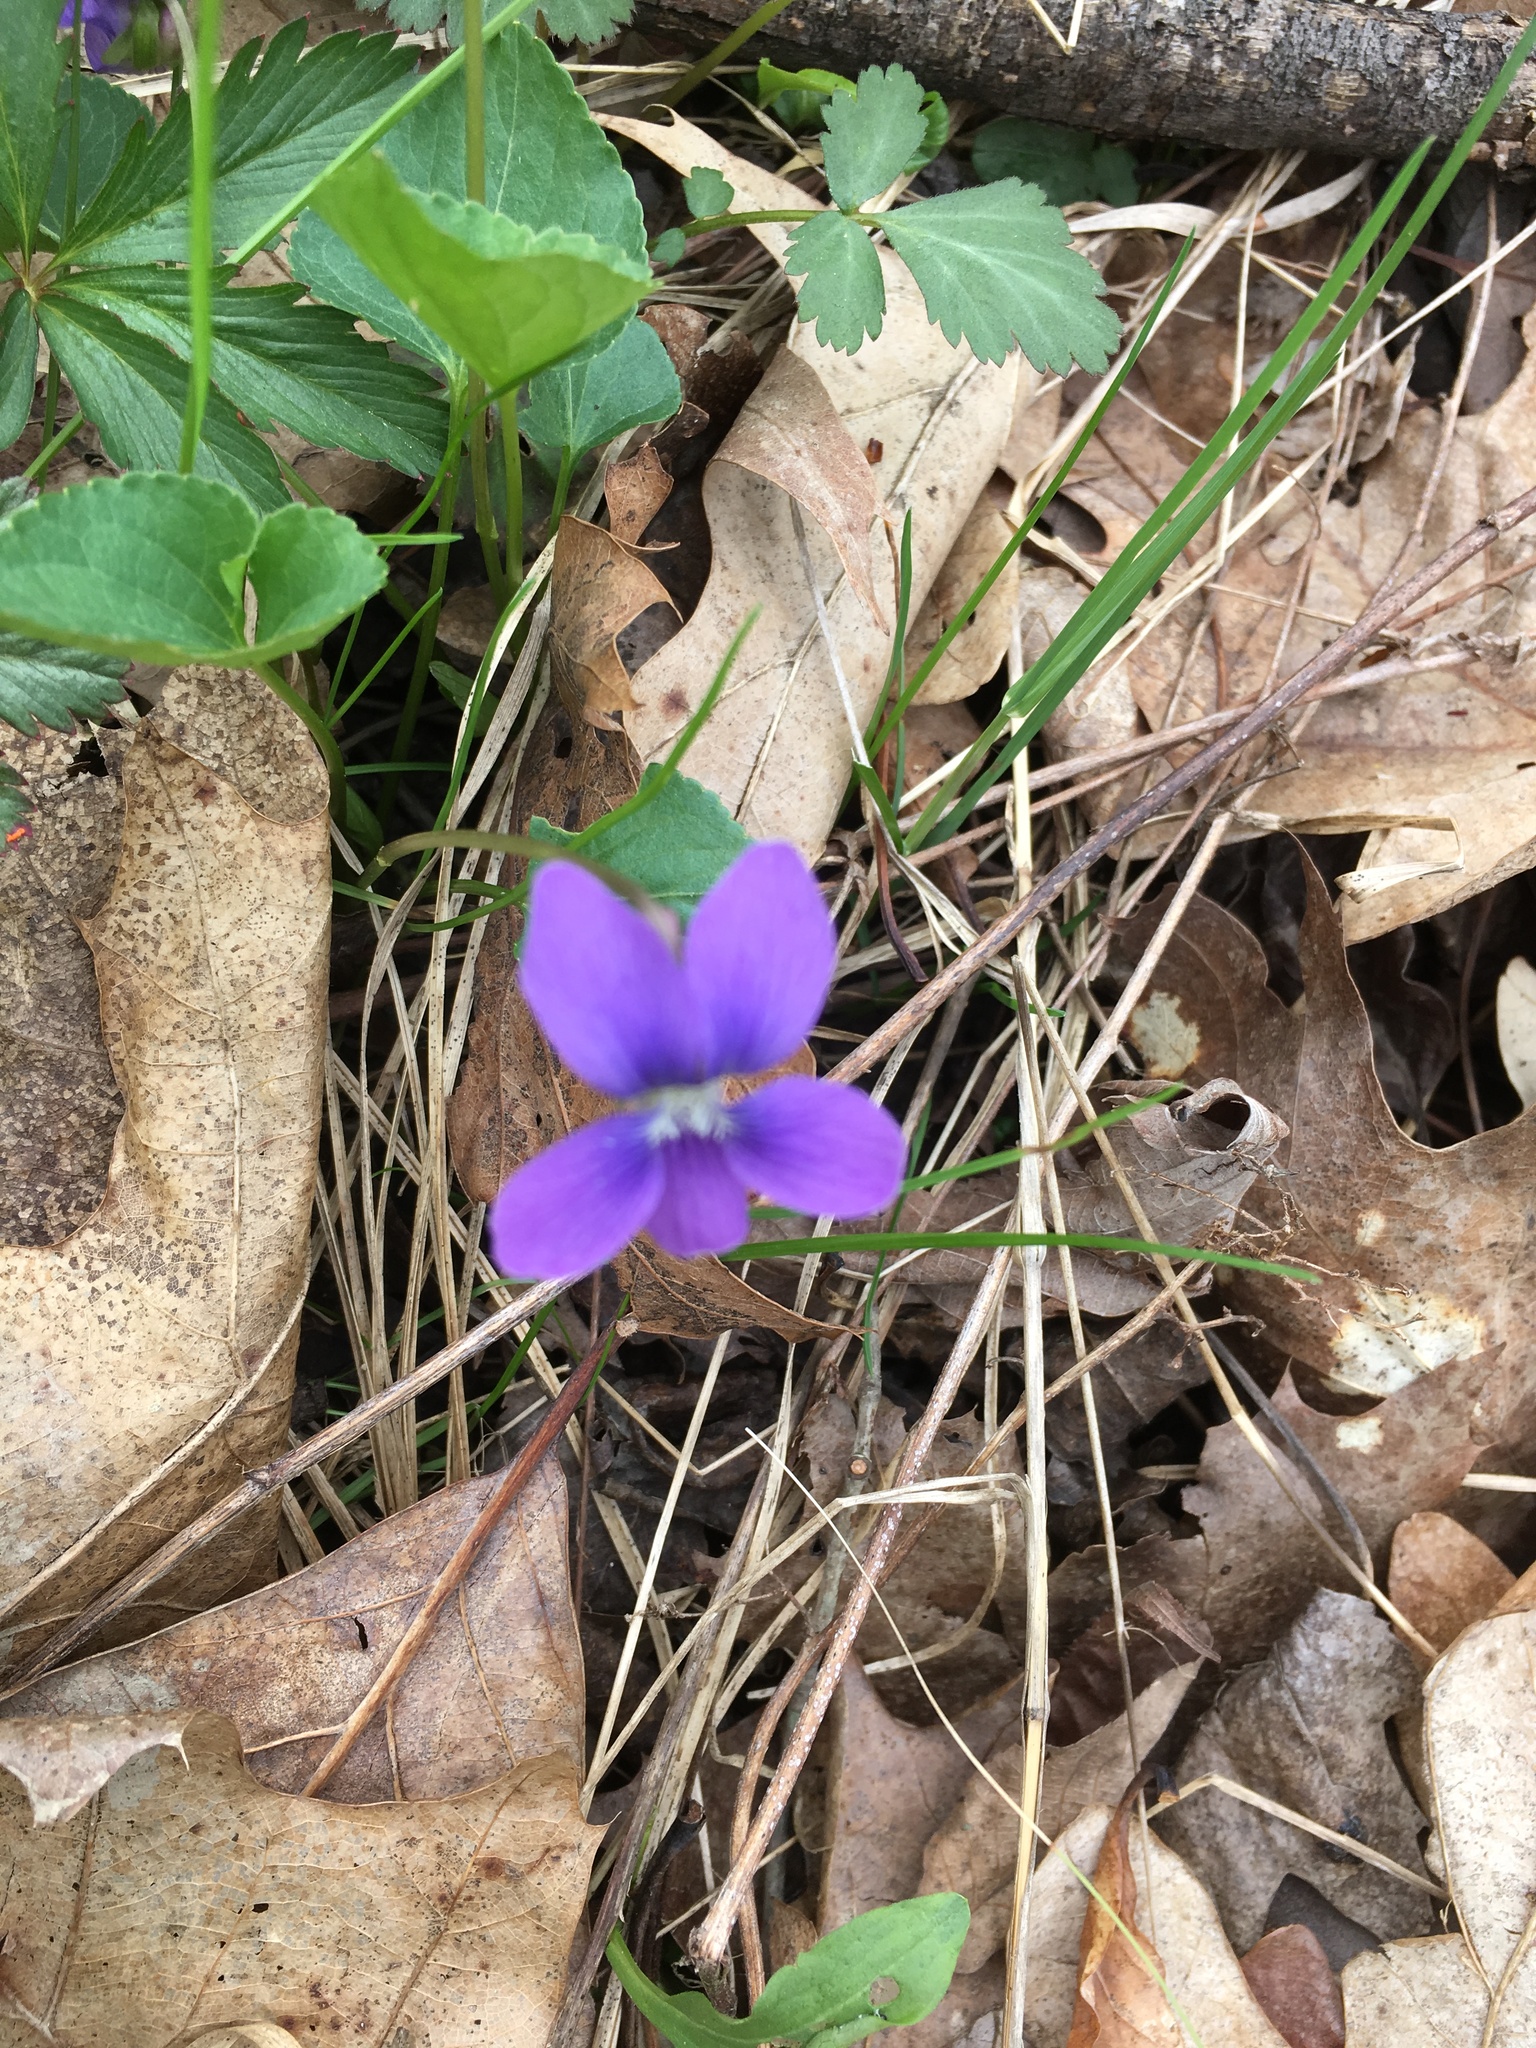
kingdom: Plantae
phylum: Tracheophyta
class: Magnoliopsida
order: Malpighiales
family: Violaceae
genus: Viola
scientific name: Viola sororia
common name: Dooryard violet
